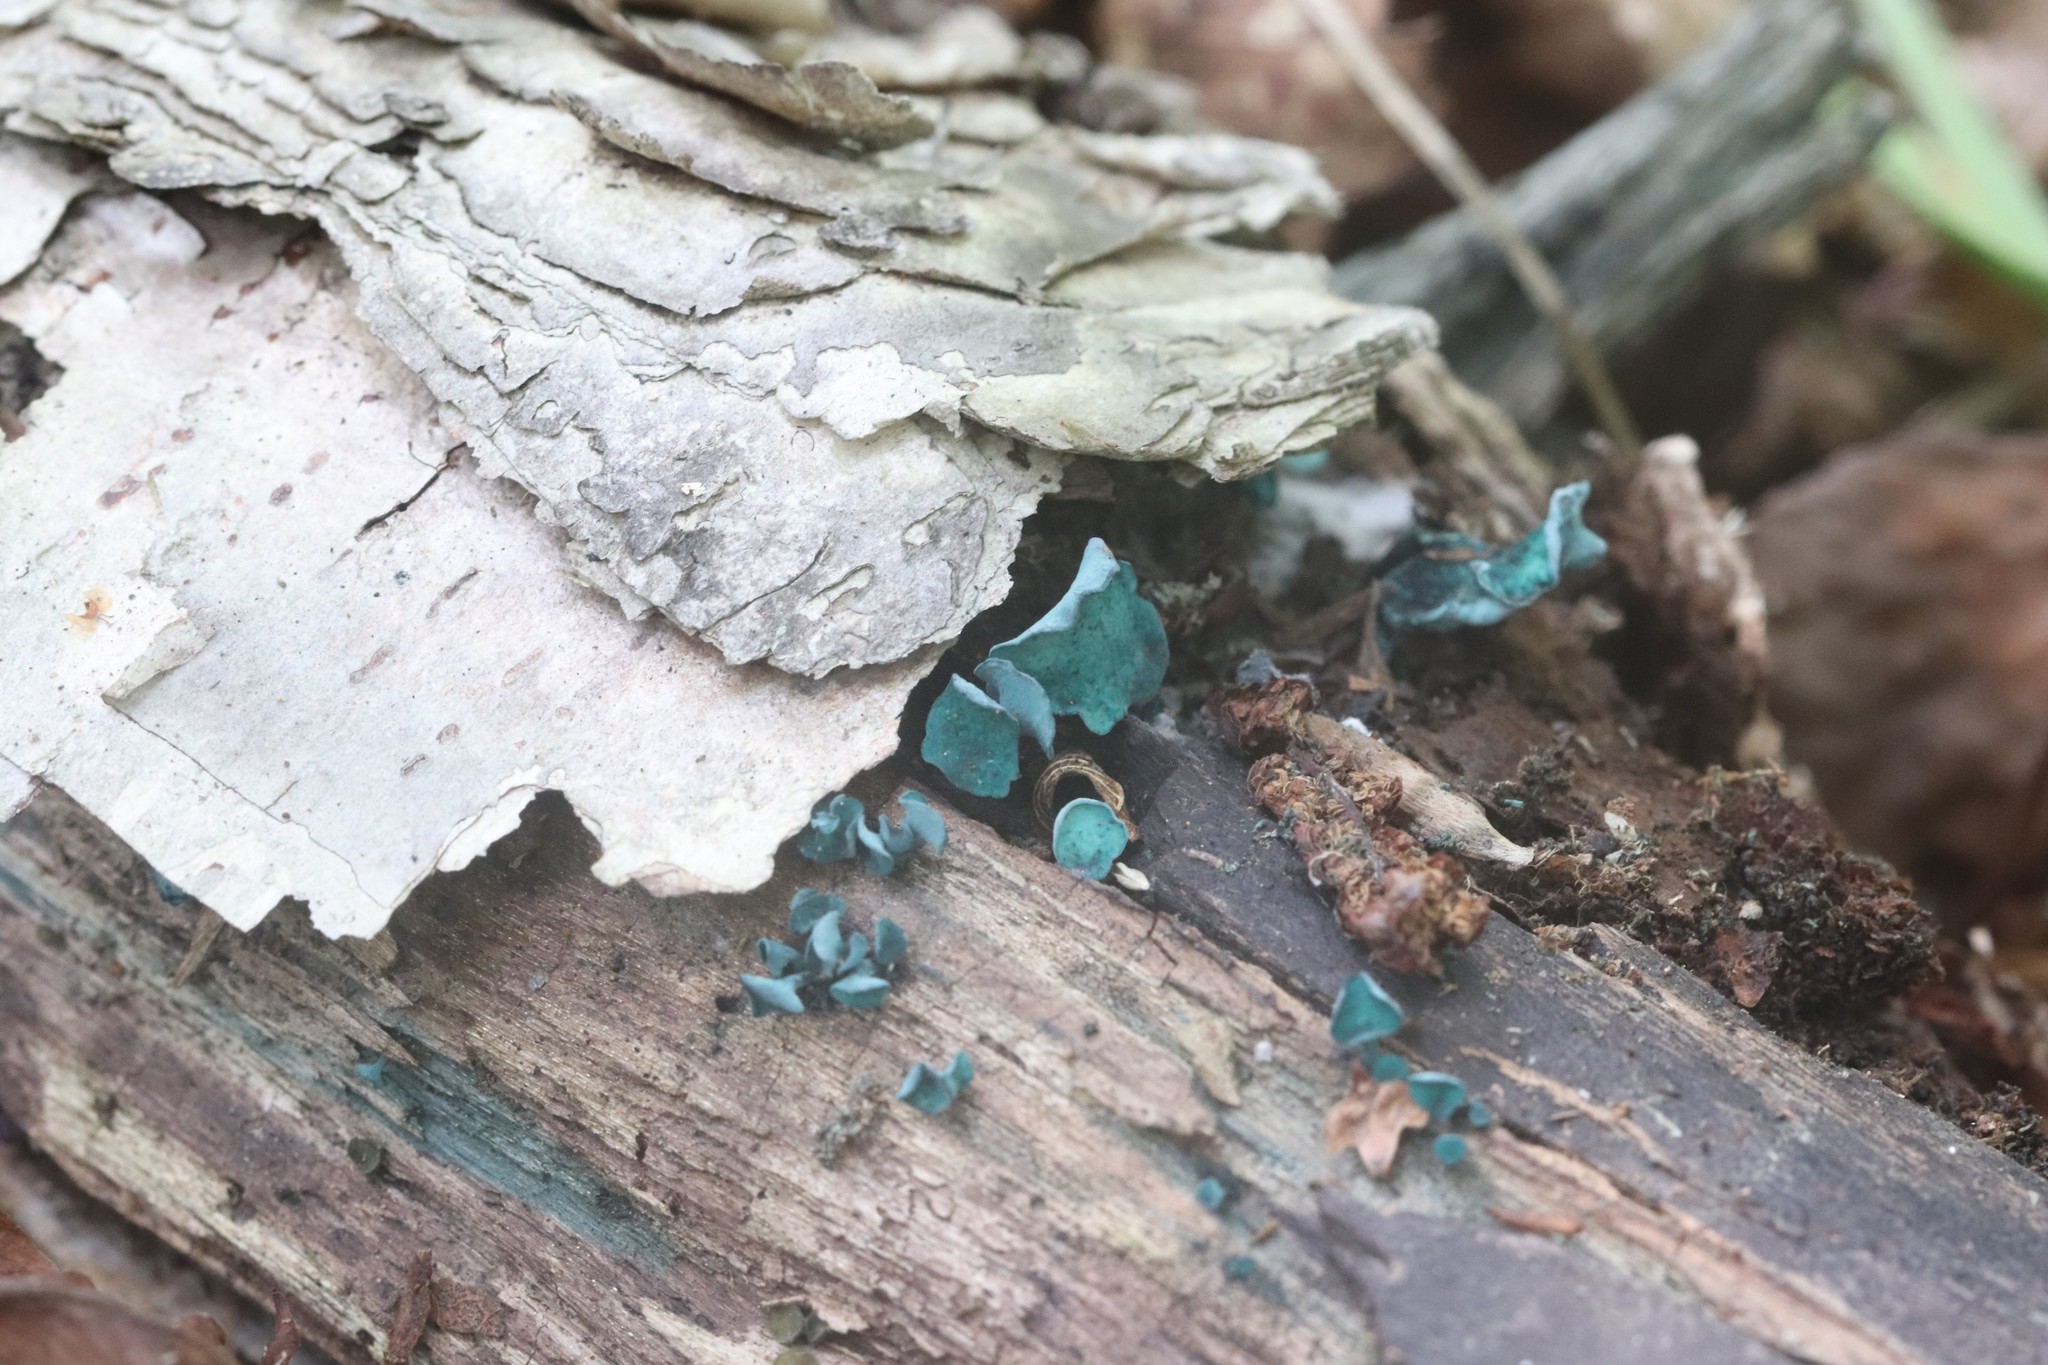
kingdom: Fungi
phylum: Ascomycota
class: Leotiomycetes
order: Helotiales
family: Chlorociboriaceae
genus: Chlorociboria
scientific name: Chlorociboria aeruginascens
